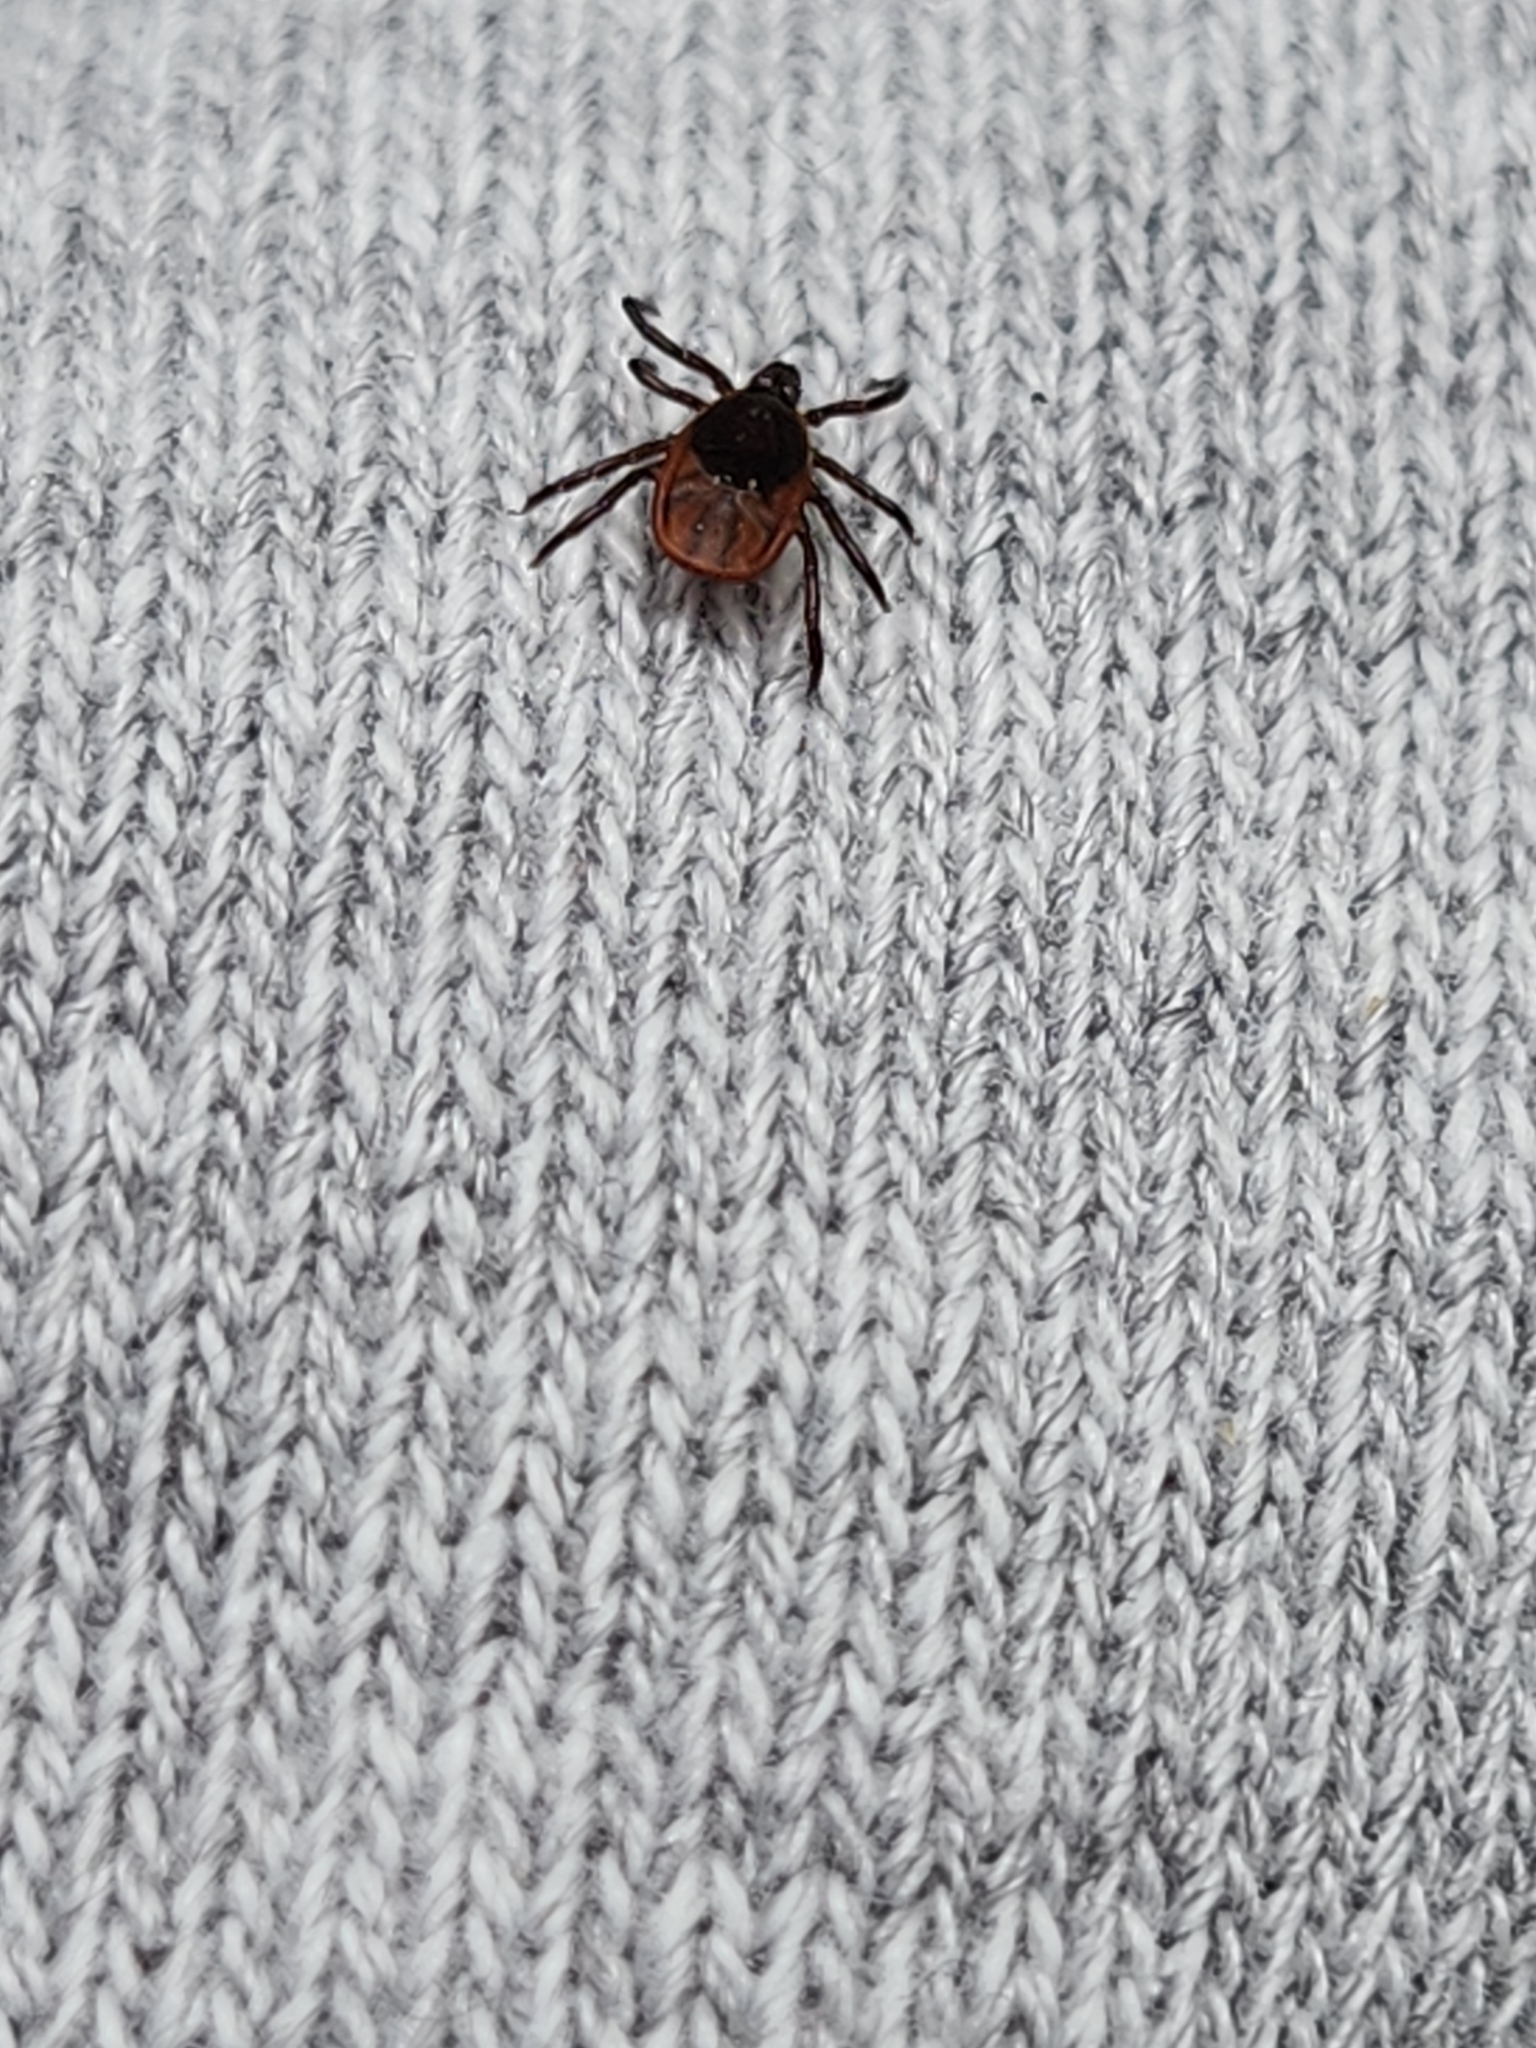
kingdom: Animalia
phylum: Arthropoda
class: Arachnida
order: Ixodida
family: Ixodidae
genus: Ixodes
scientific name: Ixodes scapularis
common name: Black legged tick
